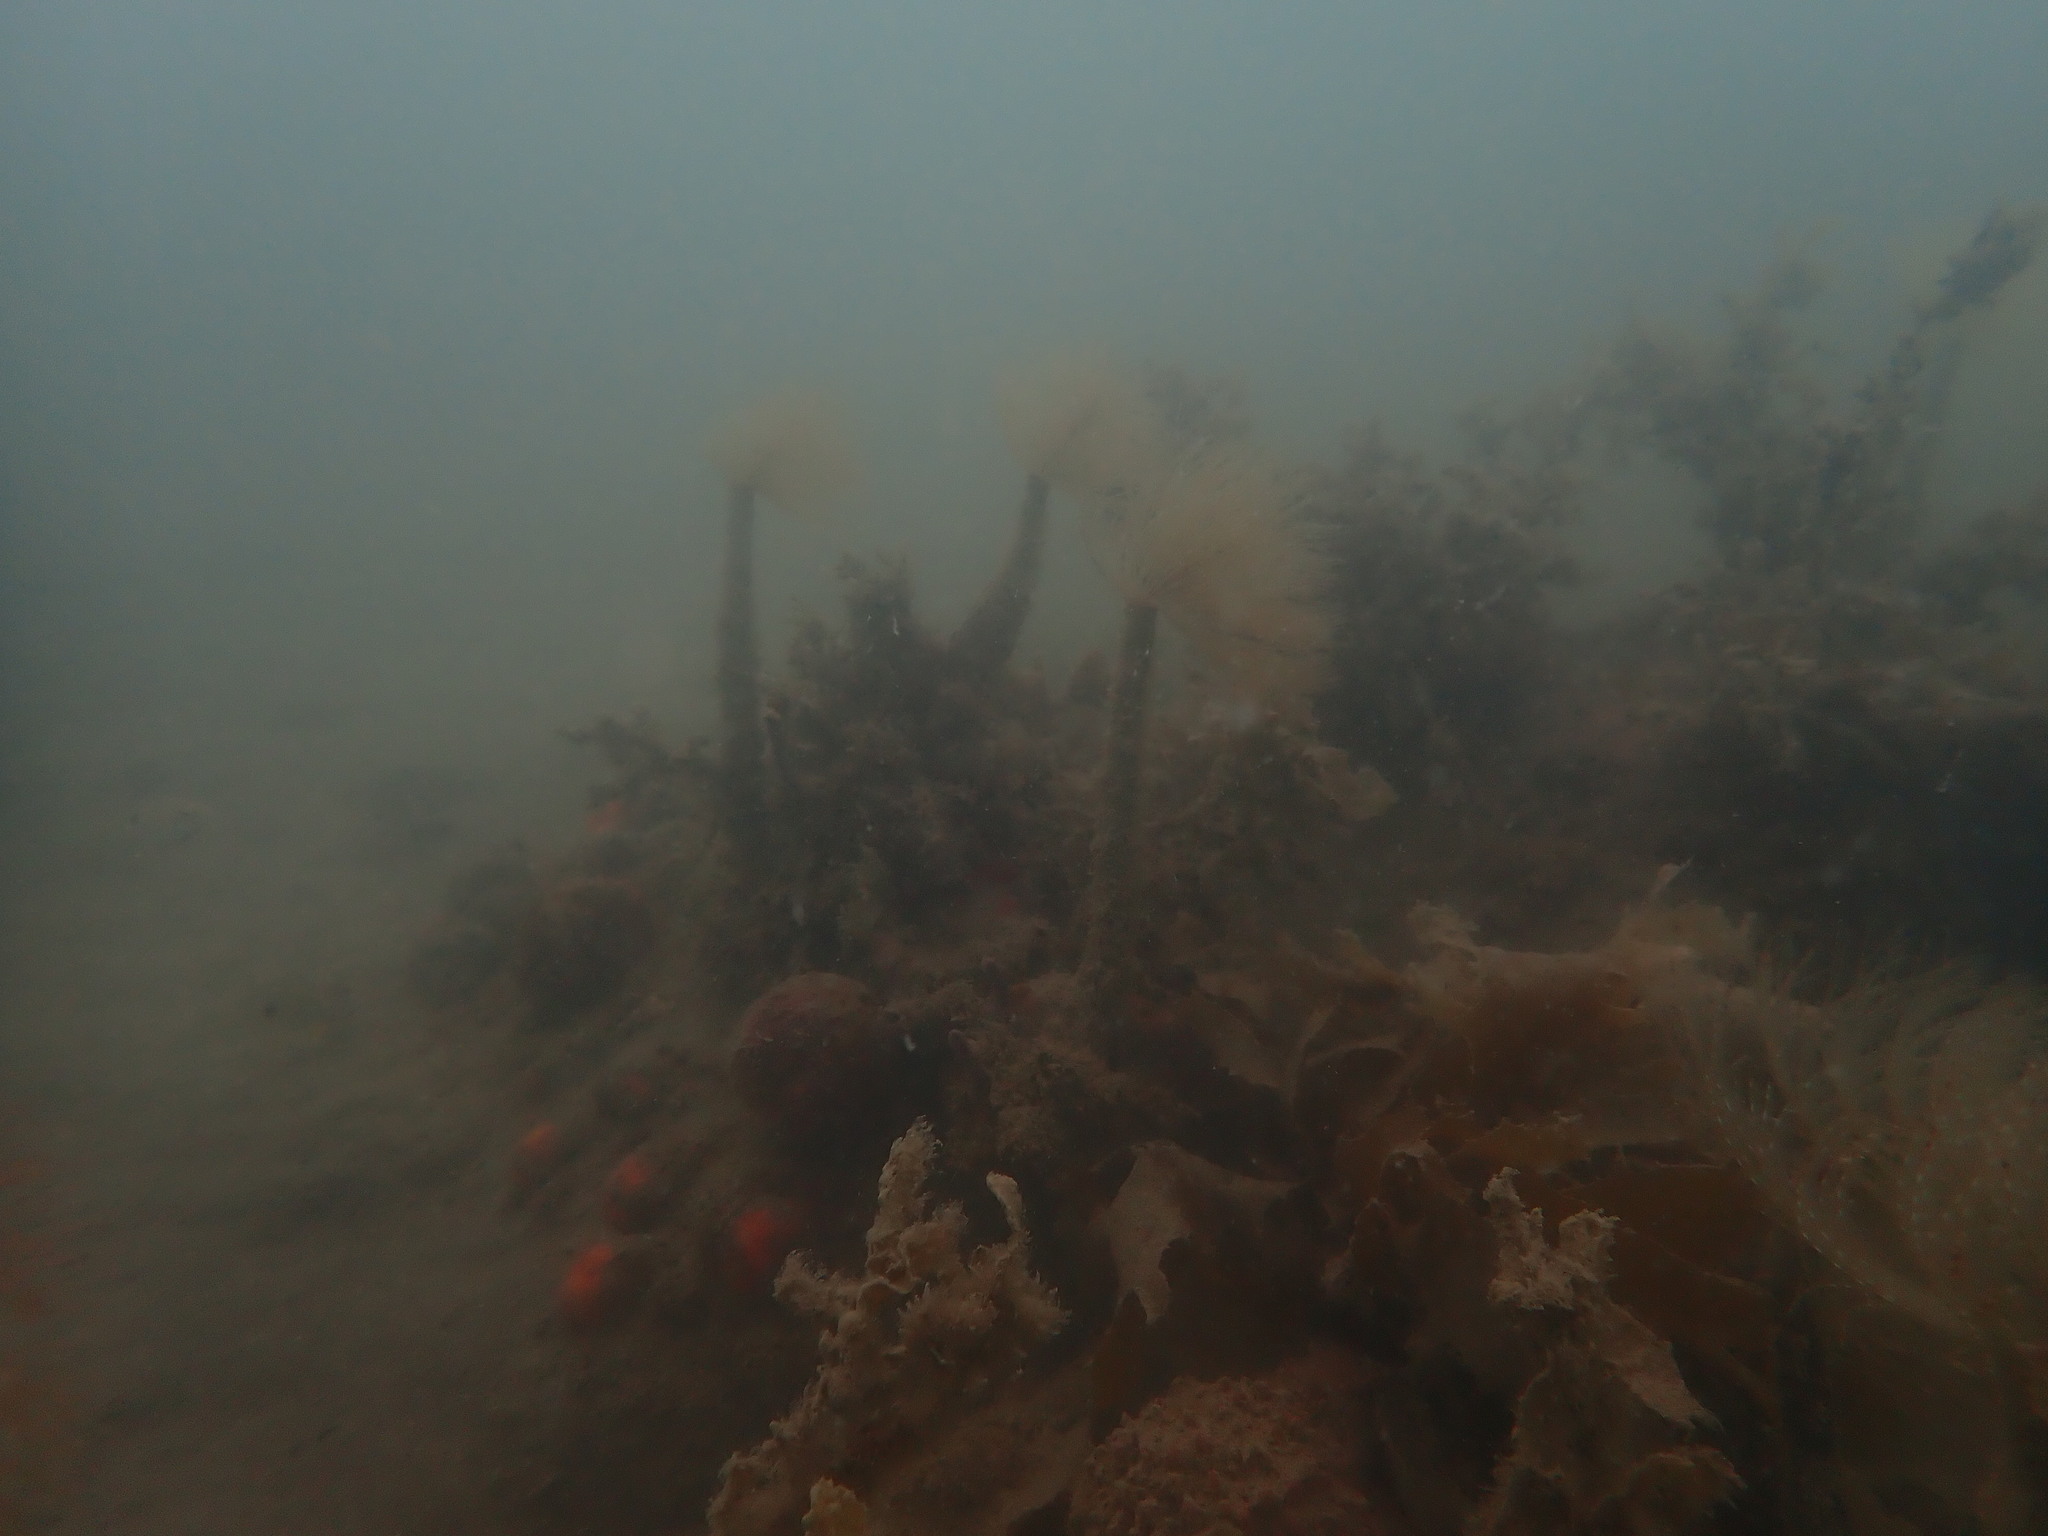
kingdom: Animalia
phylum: Annelida
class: Polychaeta
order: Sabellida
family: Sabellidae
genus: Sabella
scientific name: Sabella spallanzanii
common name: Feather duster worm
